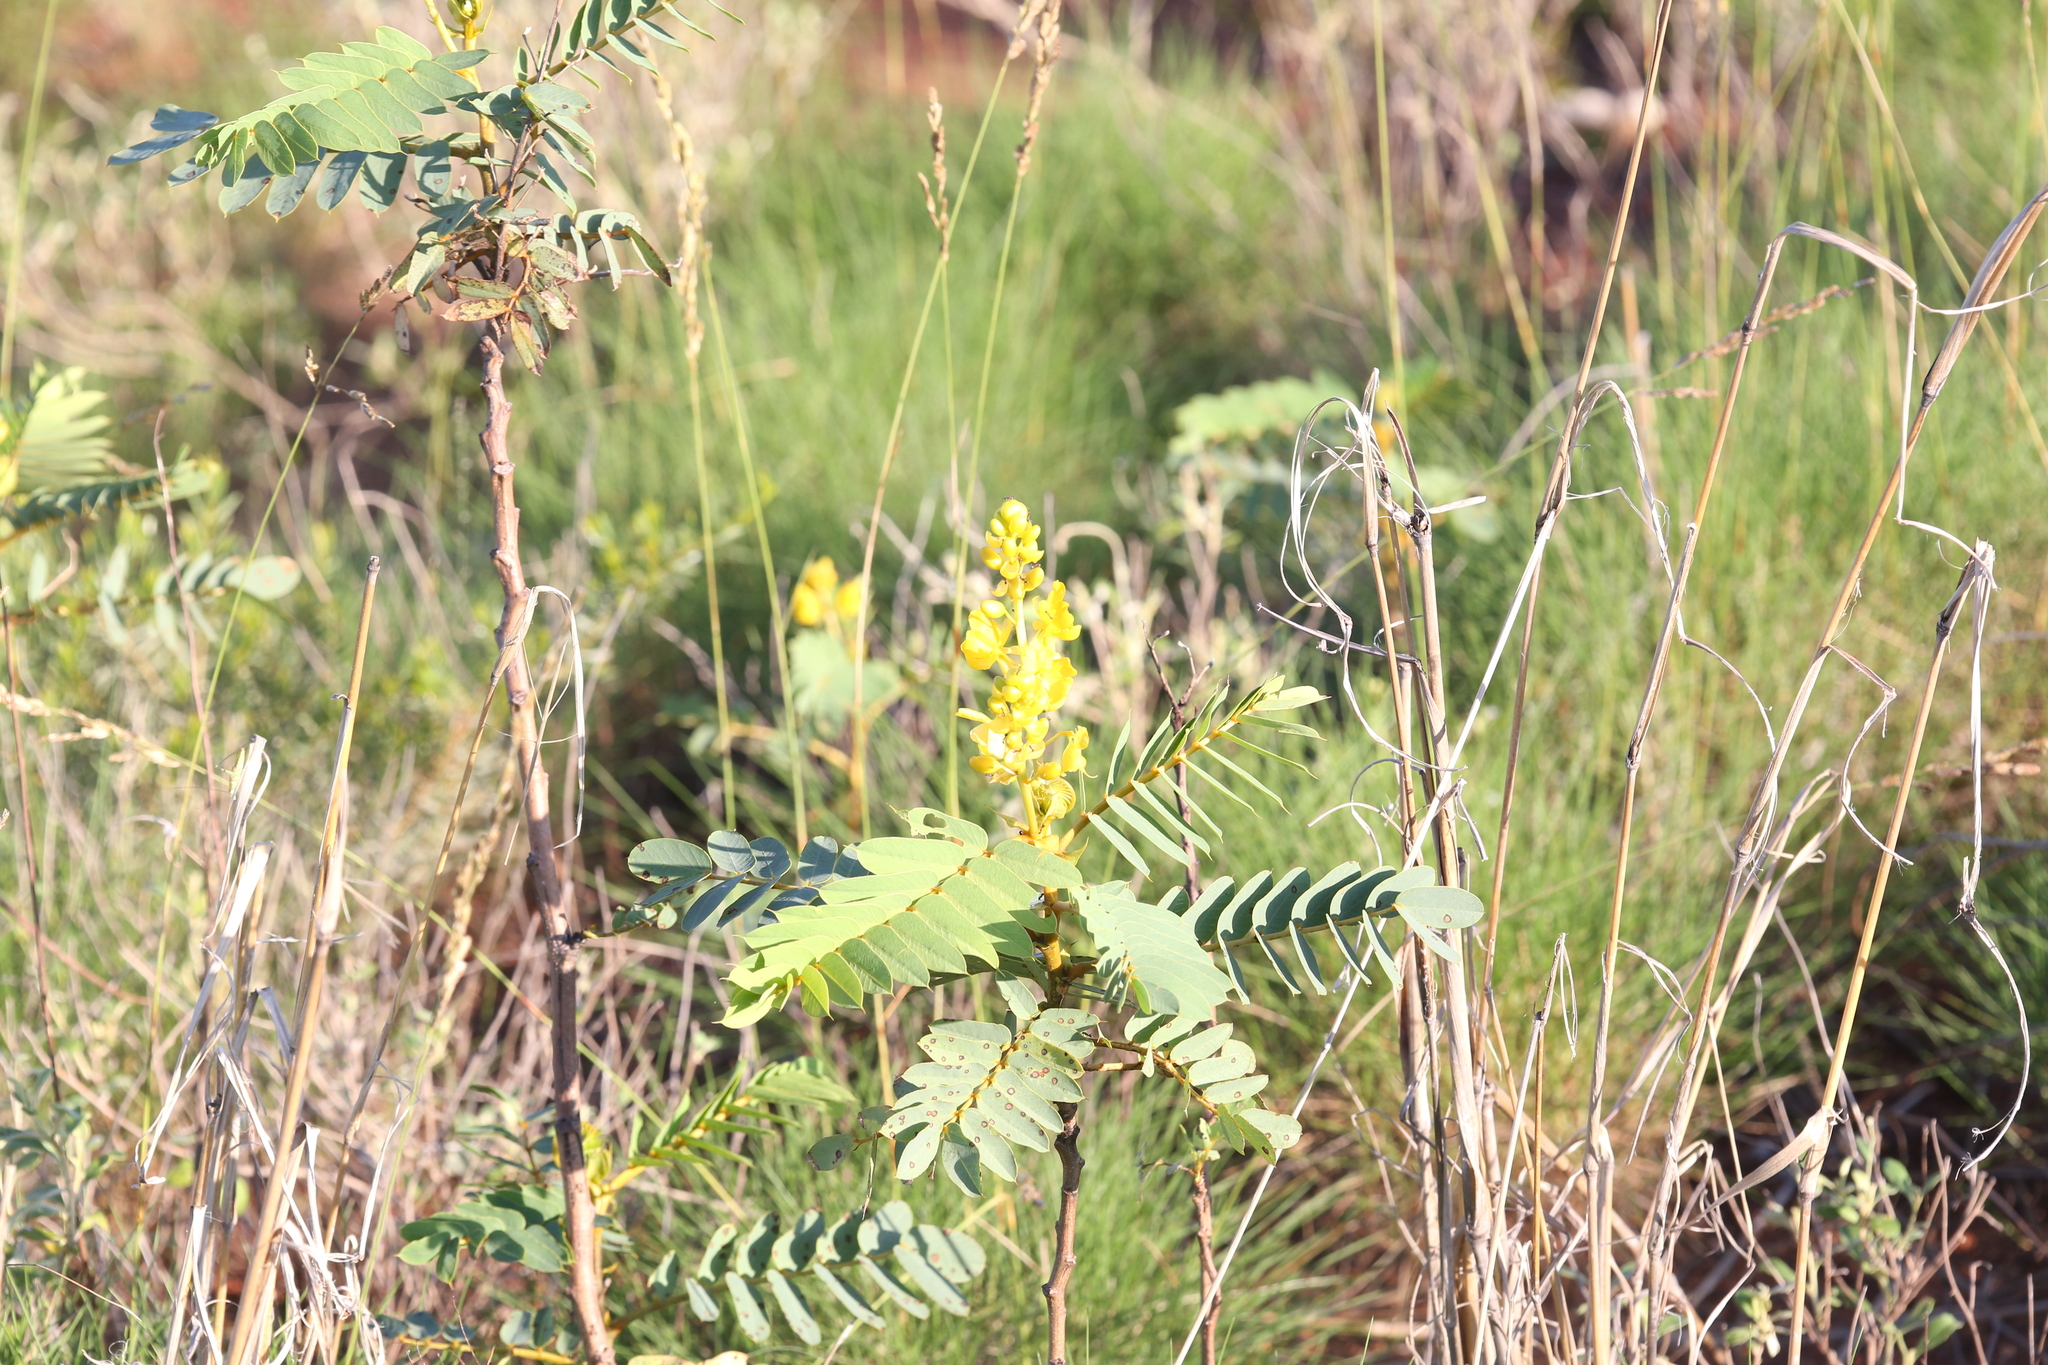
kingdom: Plantae
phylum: Tracheophyta
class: Magnoliopsida
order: Fabales
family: Fabaceae
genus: Senna
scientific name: Senna venusta
